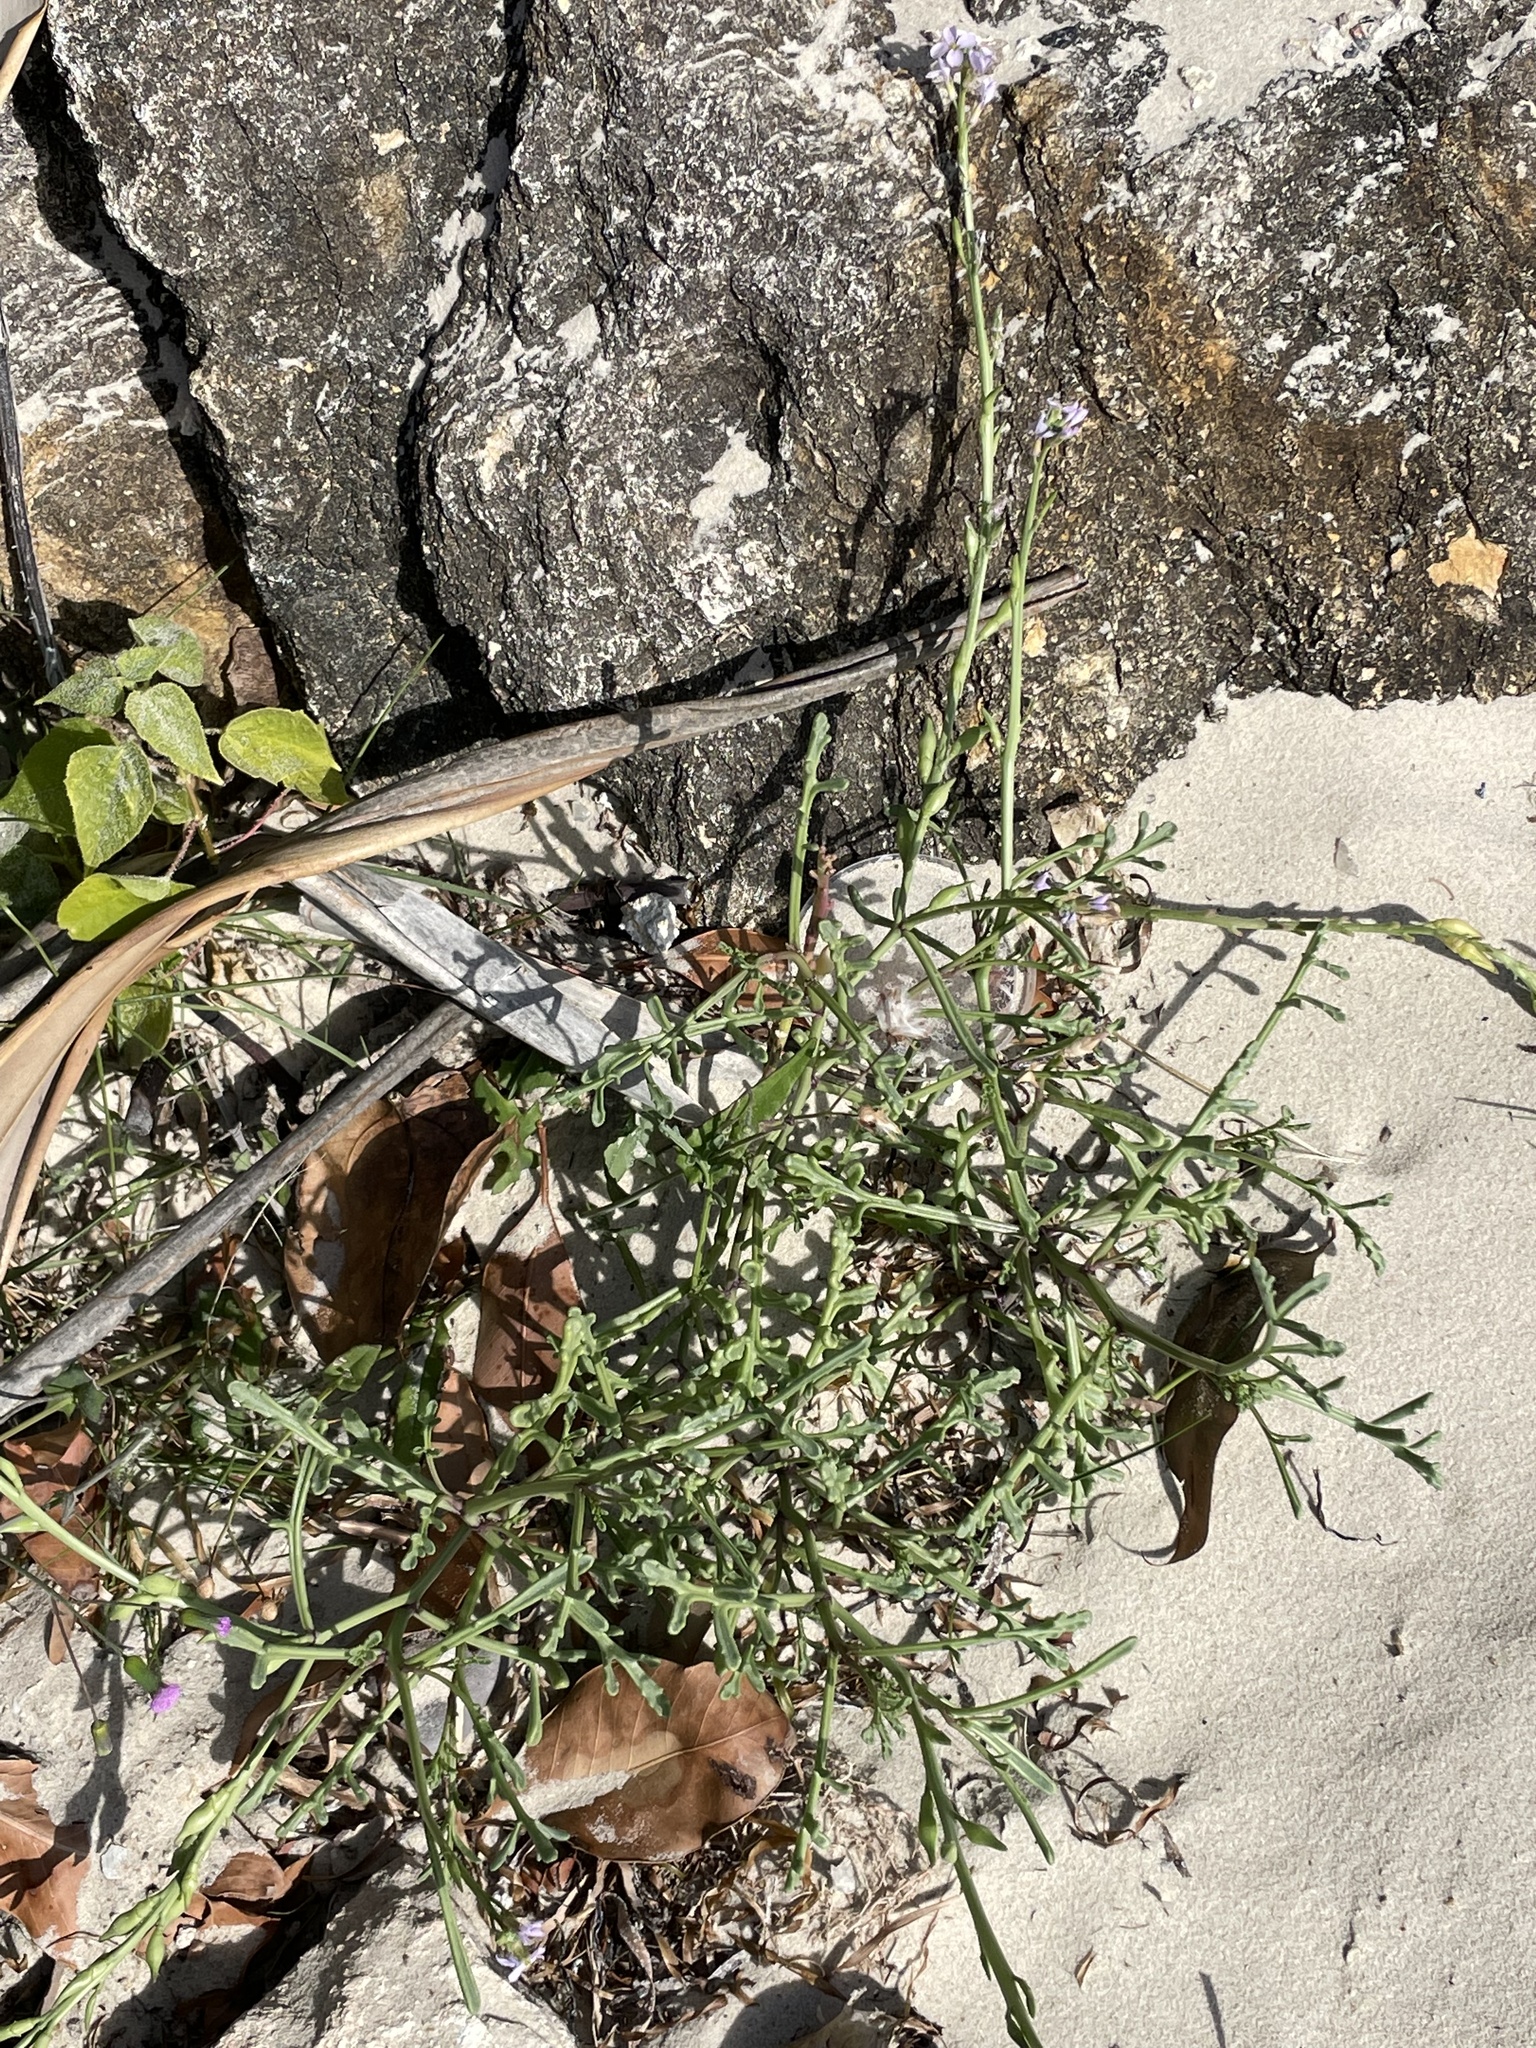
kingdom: Plantae
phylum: Tracheophyta
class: Magnoliopsida
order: Brassicales
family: Brassicaceae
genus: Cakile
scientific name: Cakile maritima
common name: Sea rocket
